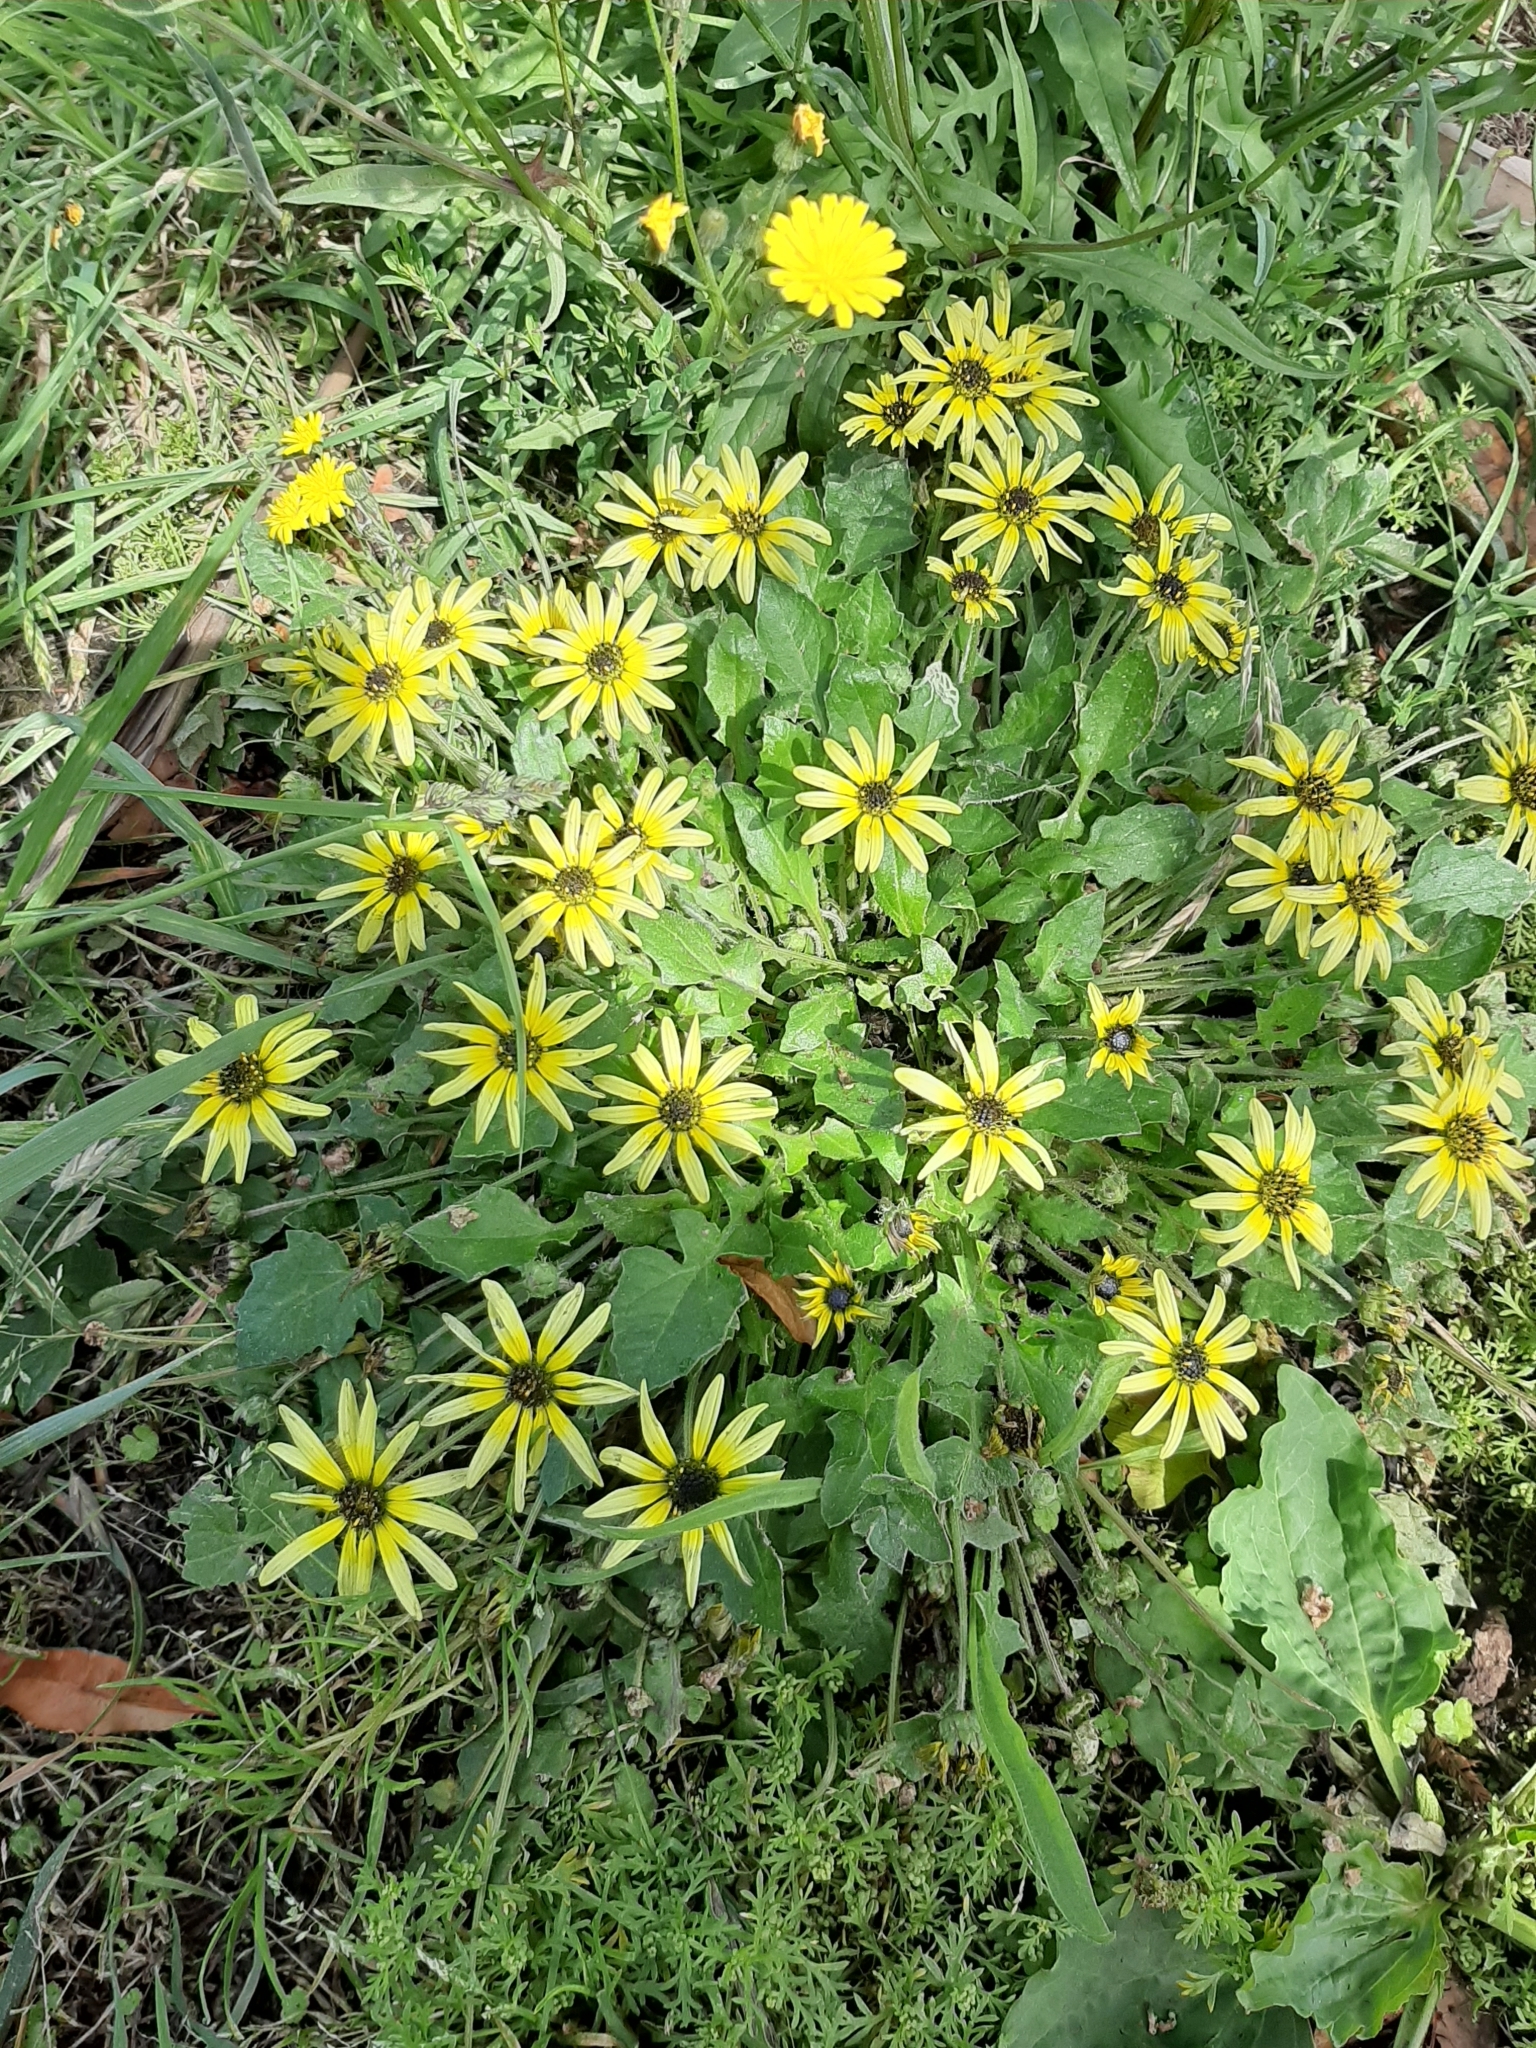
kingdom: Plantae
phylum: Tracheophyta
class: Magnoliopsida
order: Asterales
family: Asteraceae
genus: Arctotheca
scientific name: Arctotheca calendula
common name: Capeweed
